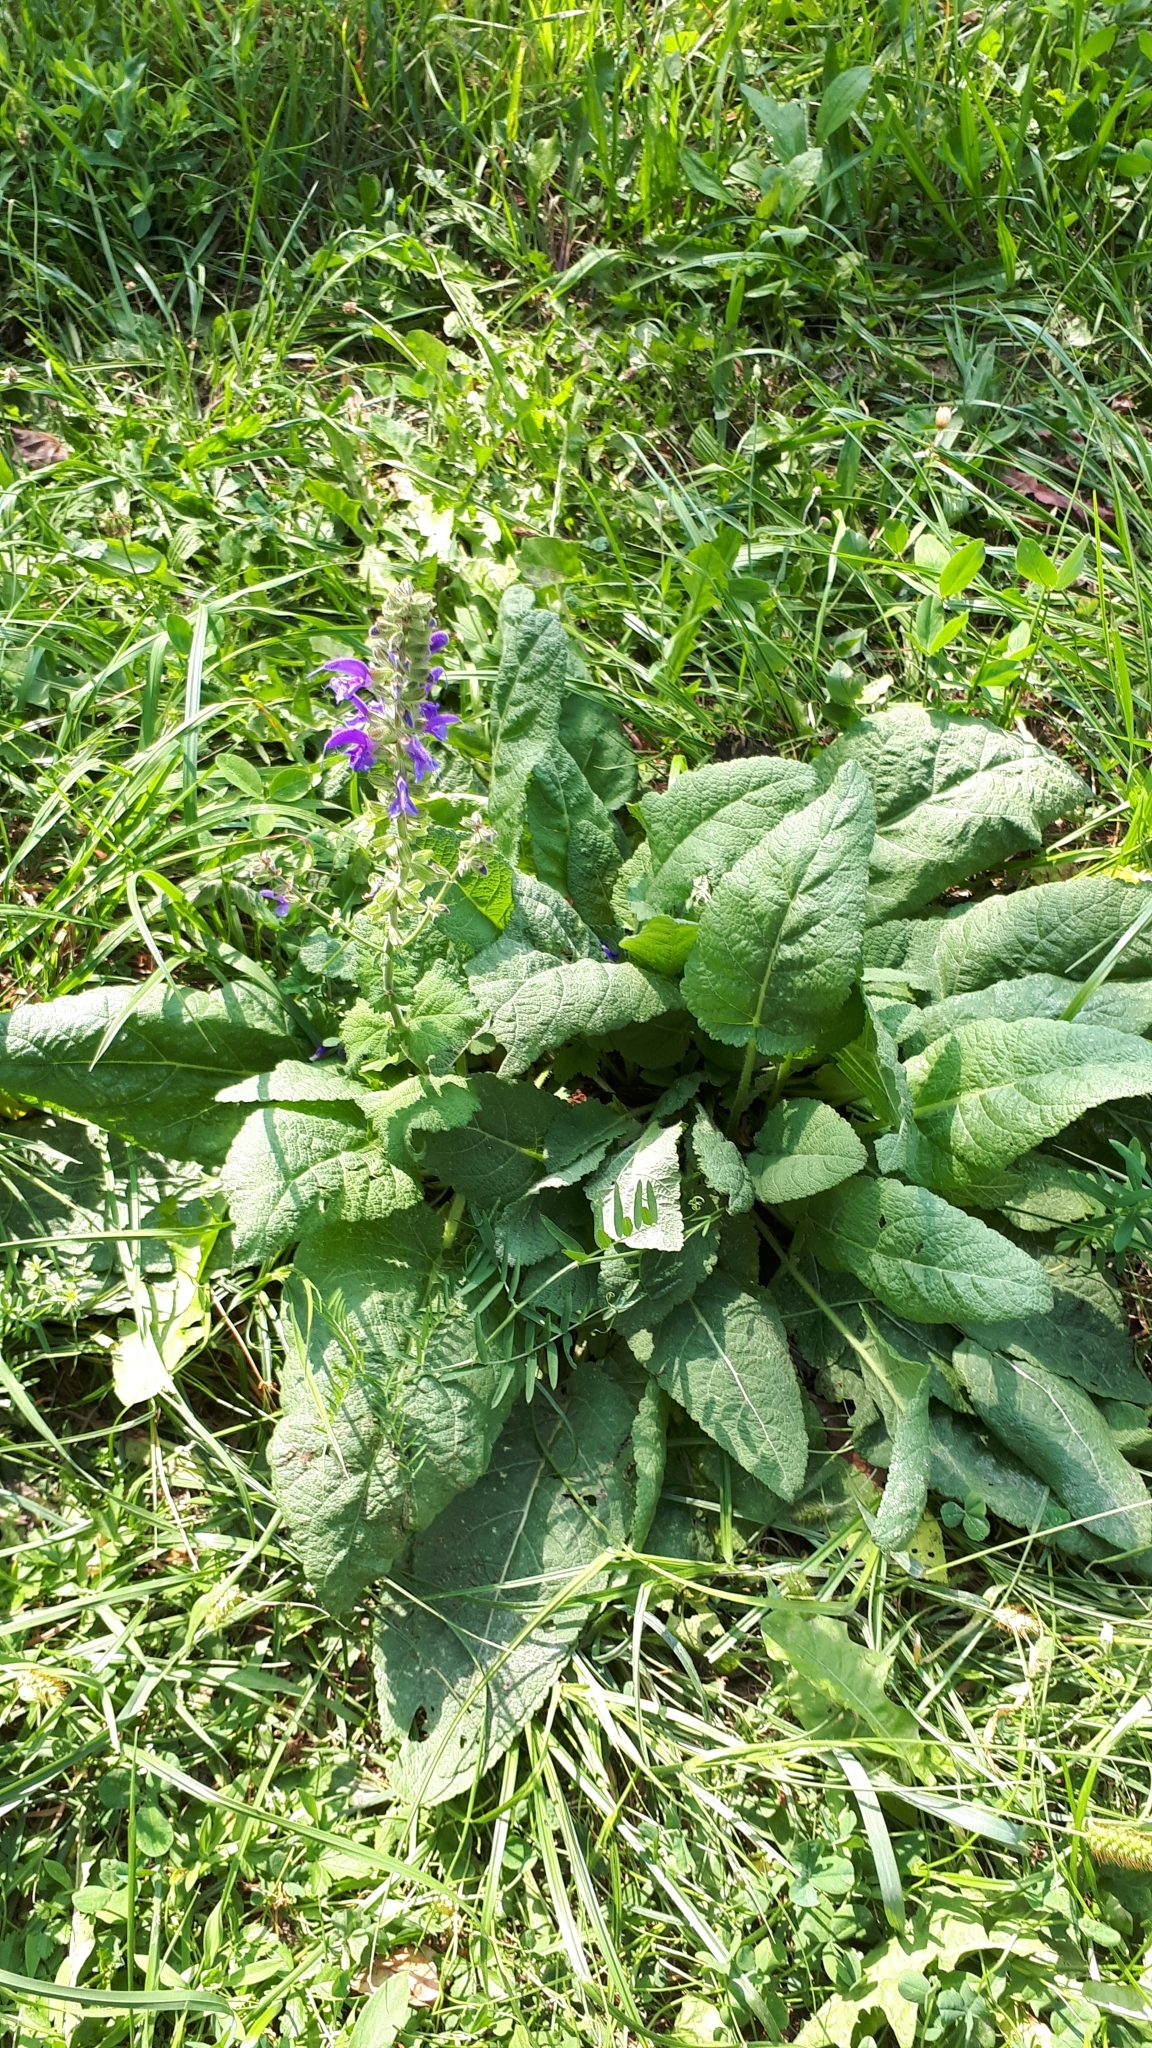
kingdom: Plantae
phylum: Tracheophyta
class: Magnoliopsida
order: Lamiales
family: Lamiaceae
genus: Salvia
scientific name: Salvia pratensis
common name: Meadow sage
